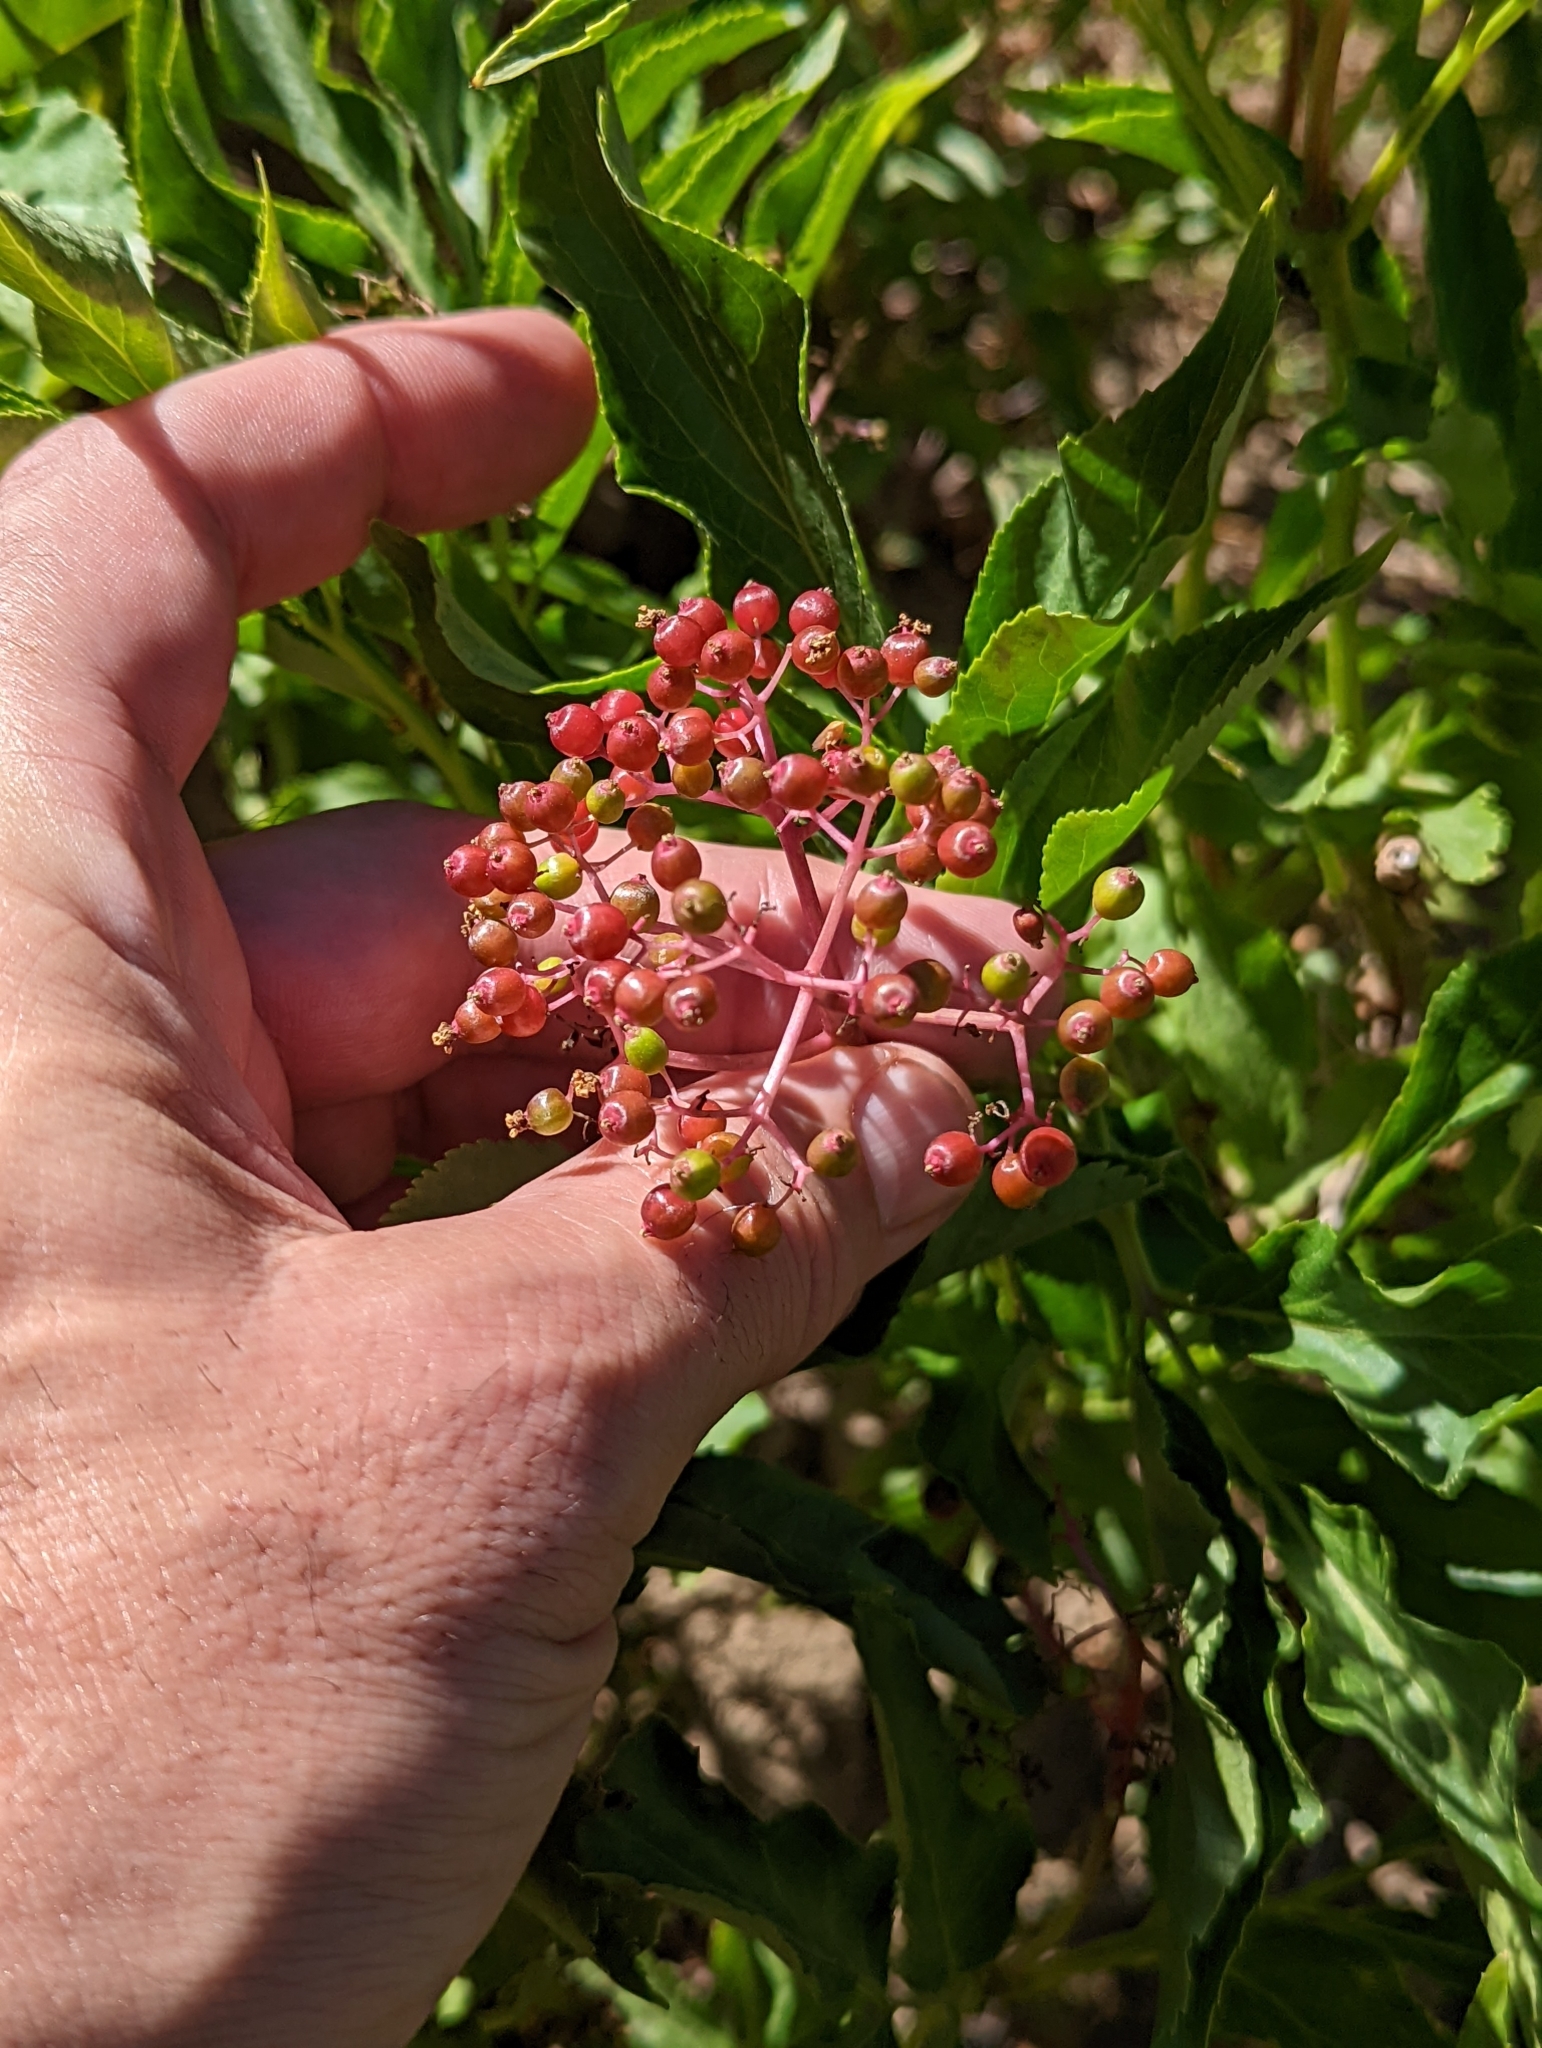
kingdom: Plantae
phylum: Tracheophyta
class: Magnoliopsida
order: Dipsacales
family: Viburnaceae
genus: Sambucus
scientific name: Sambucus racemosa
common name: Red-berried elder
